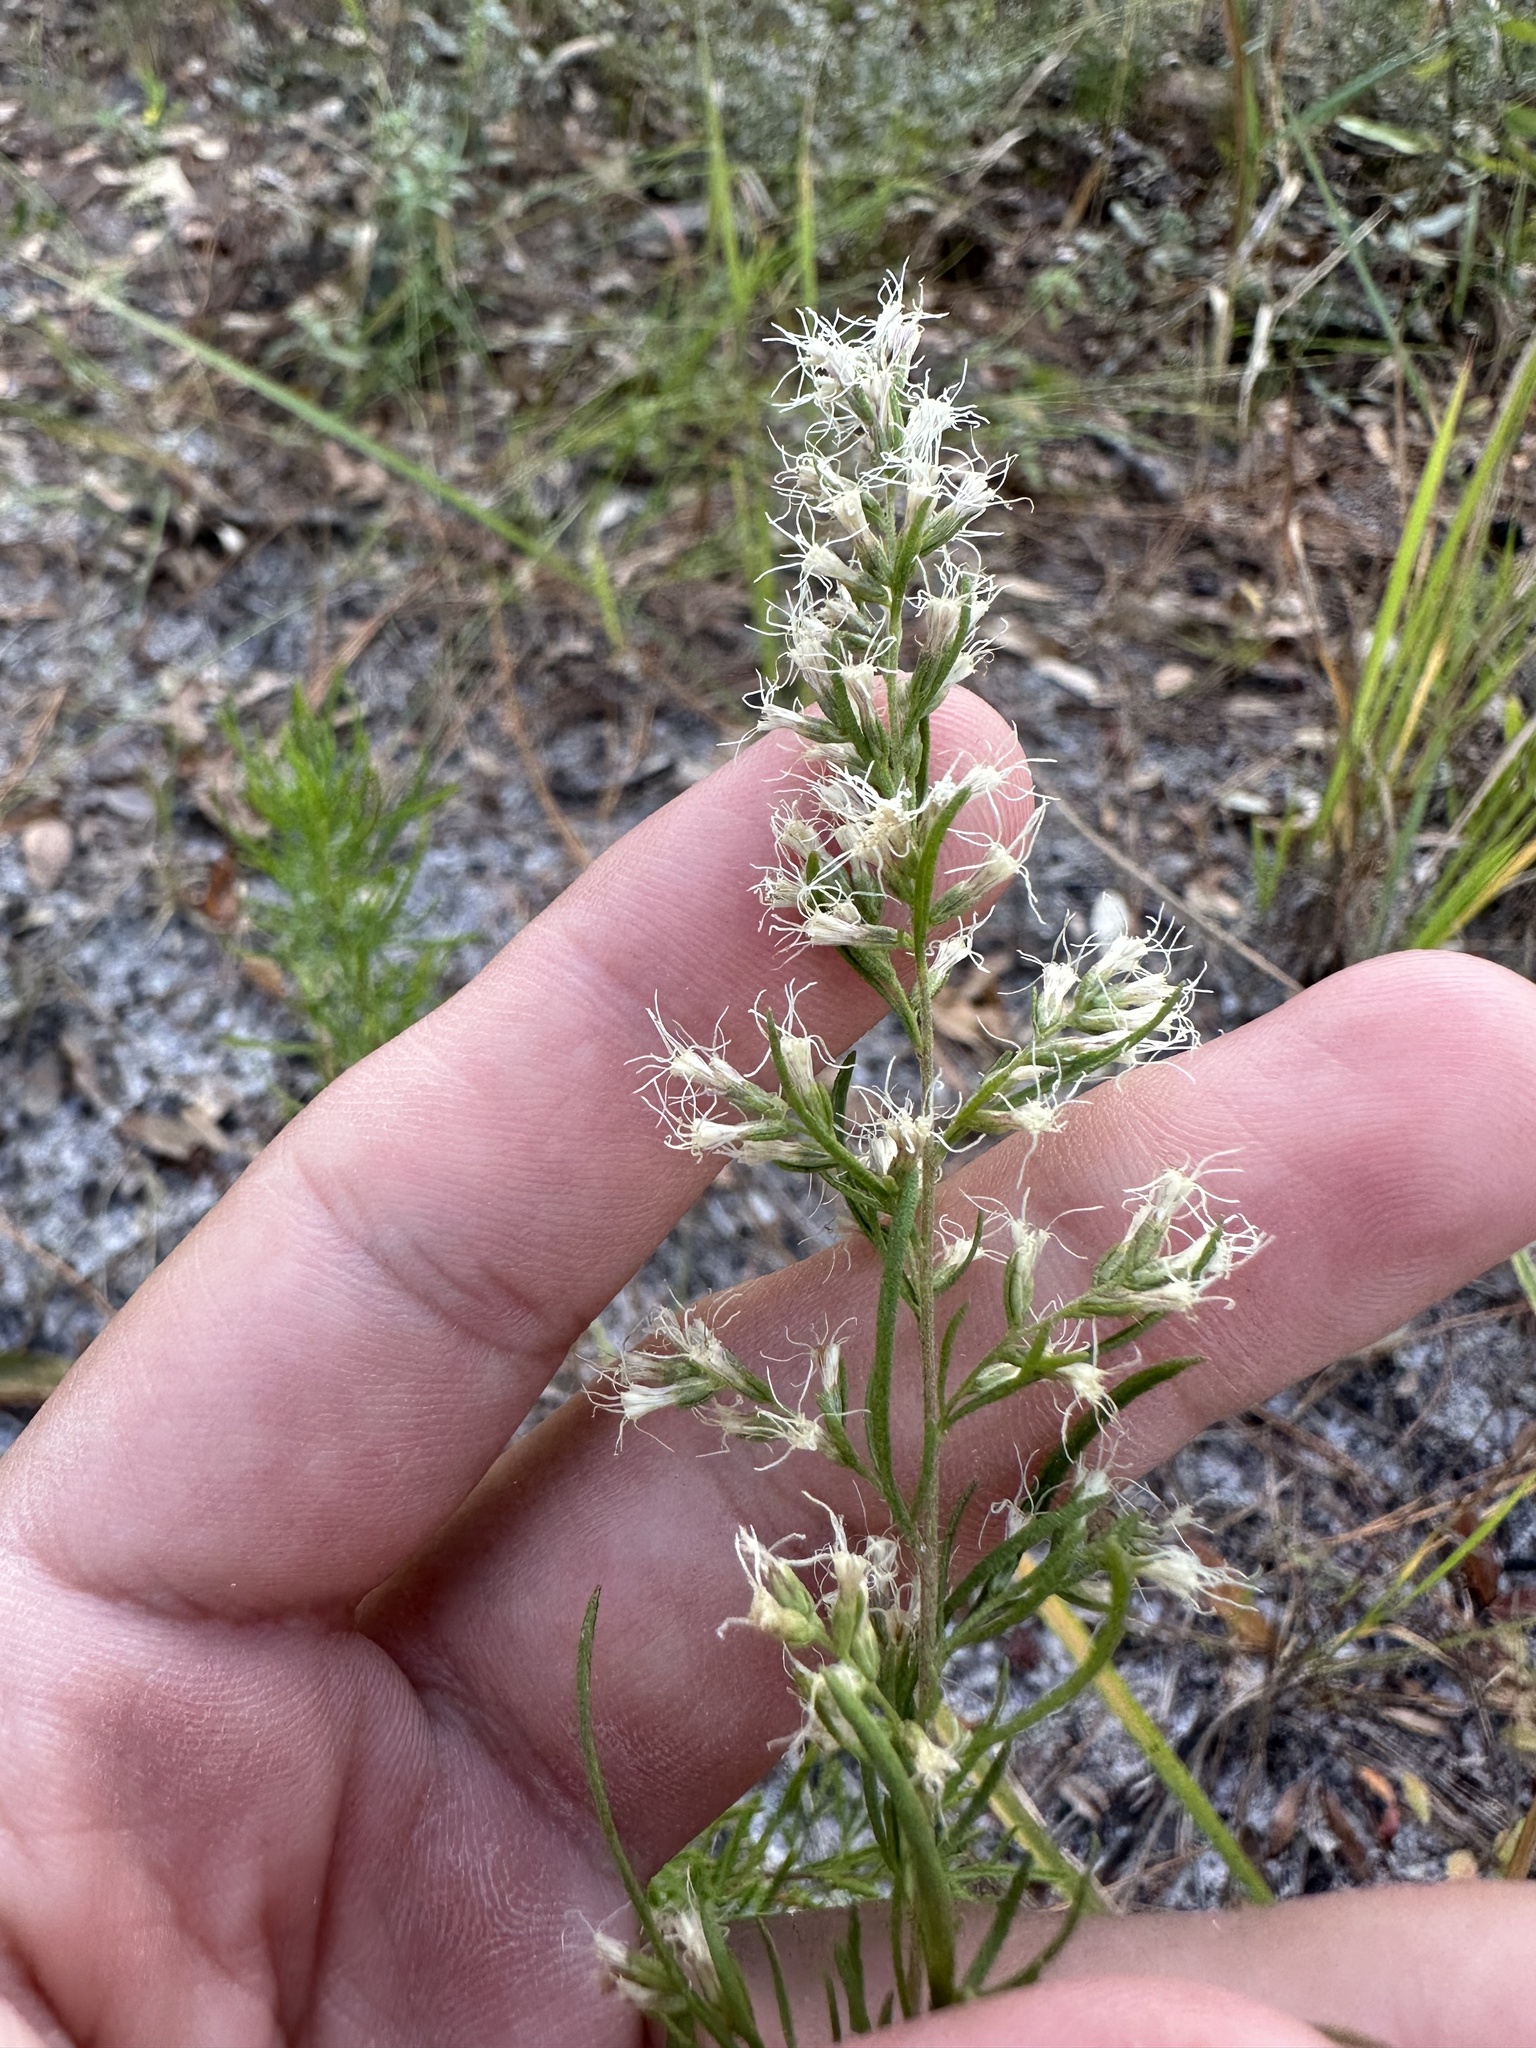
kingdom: Plantae
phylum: Tracheophyta
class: Magnoliopsida
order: Asterales
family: Asteraceae
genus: Eupatorium
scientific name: Eupatorium compositifolium
